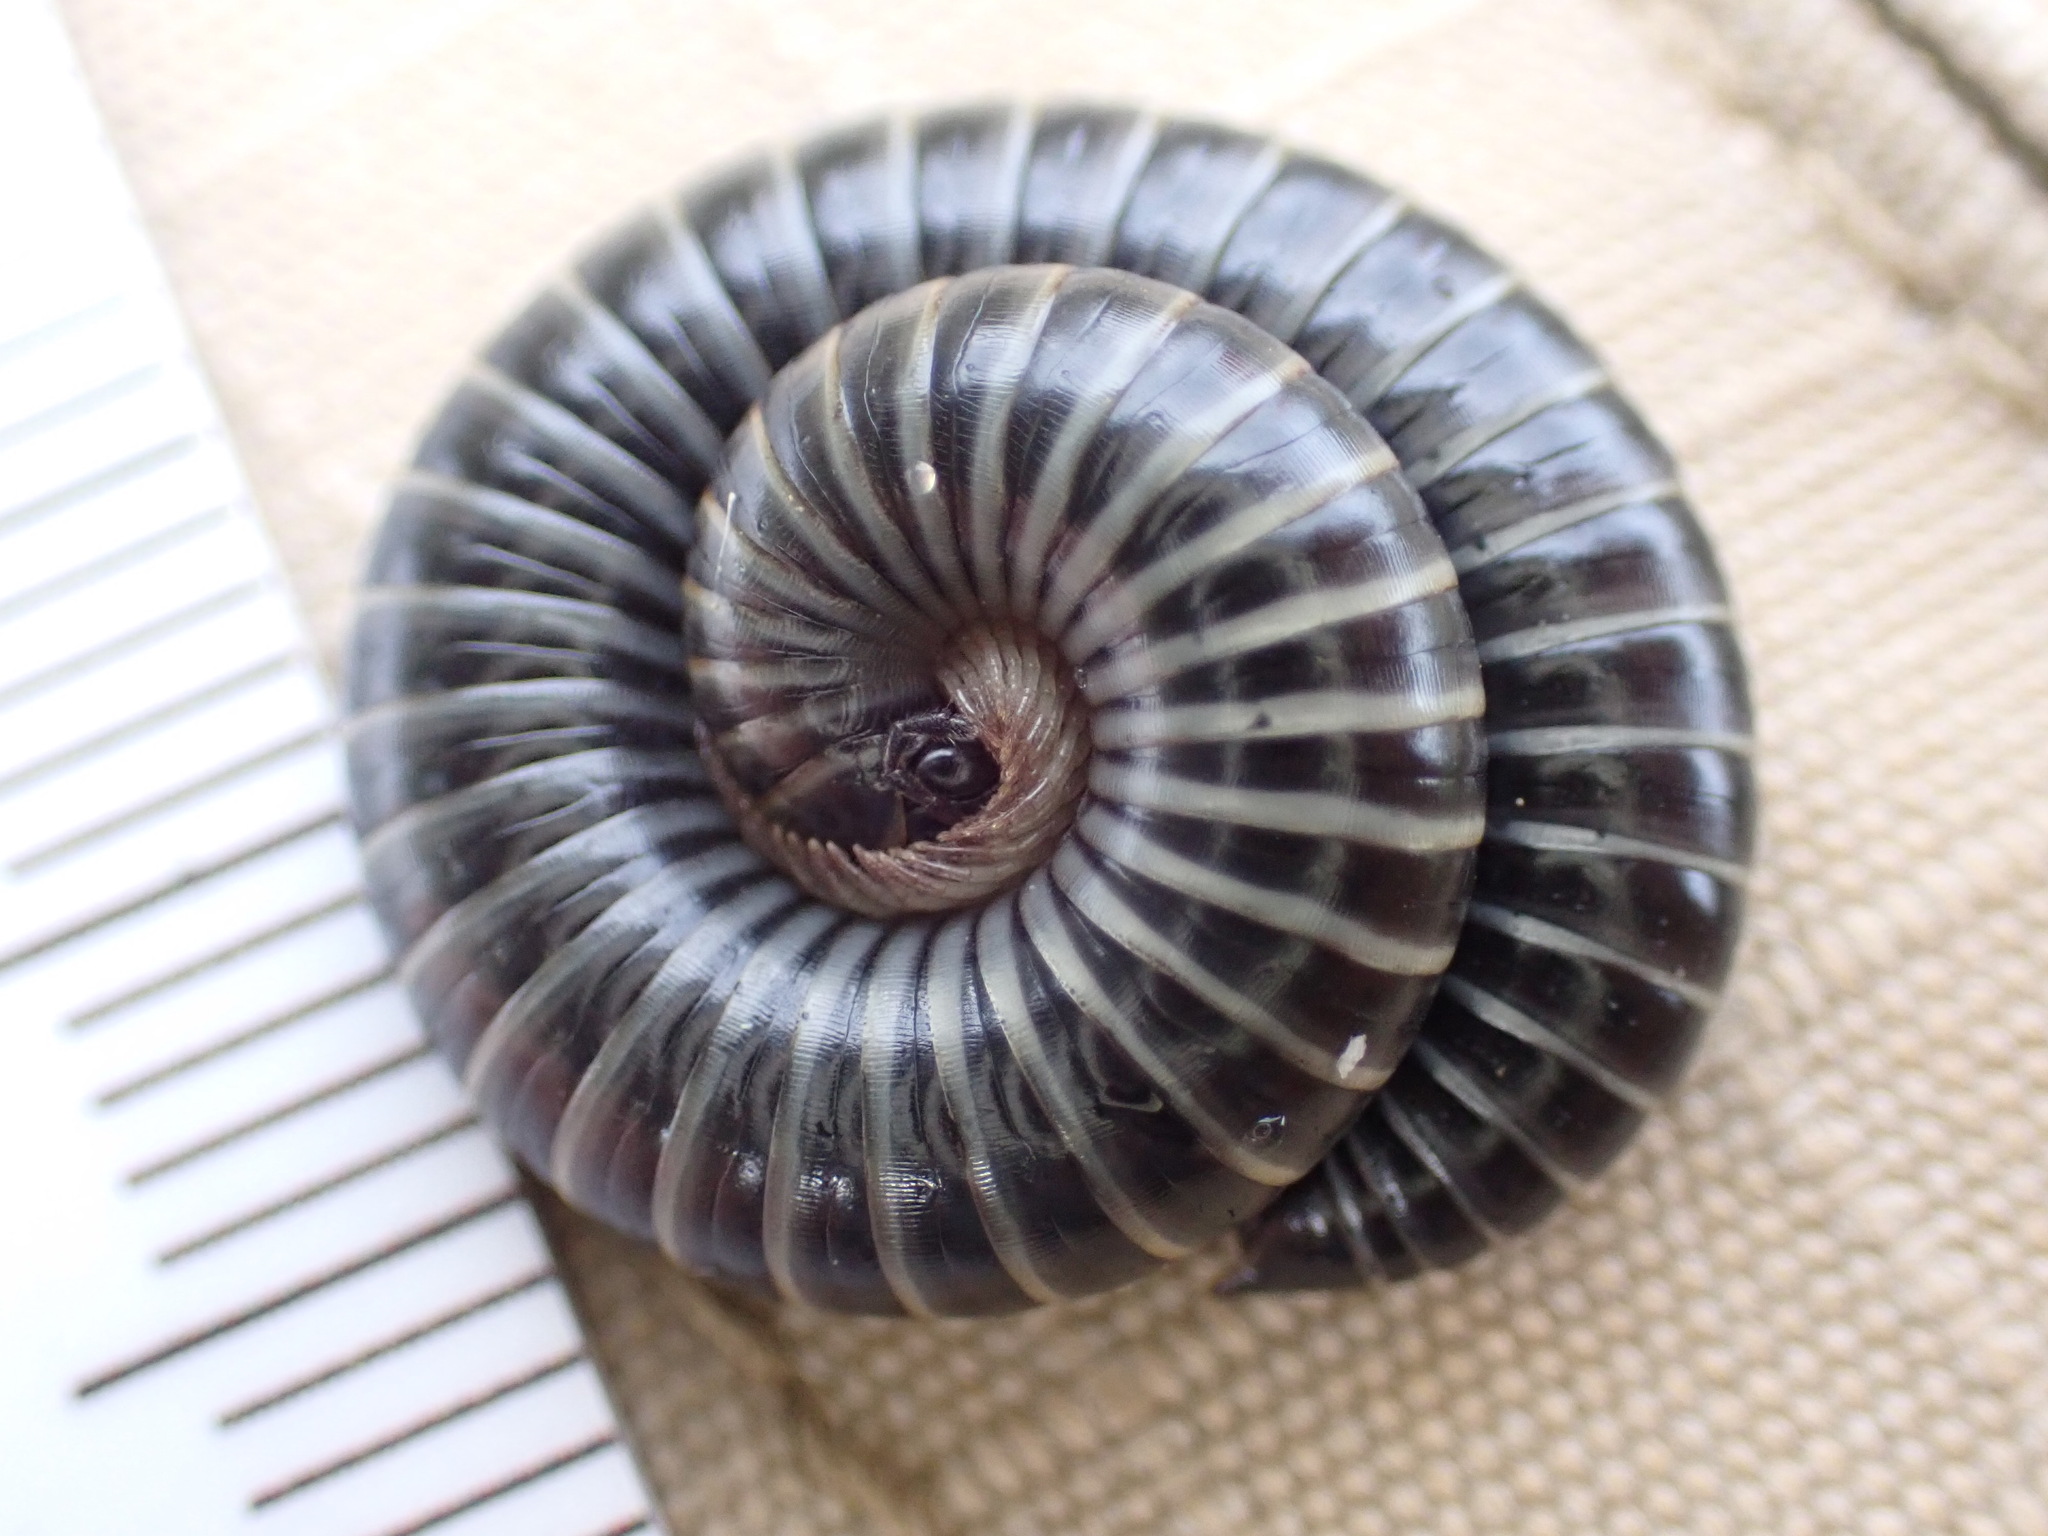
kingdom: Animalia
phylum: Arthropoda
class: Diplopoda
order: Julida
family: Julidae
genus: Ommatoiulus
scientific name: Ommatoiulus sabulosus
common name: Striped millipede
